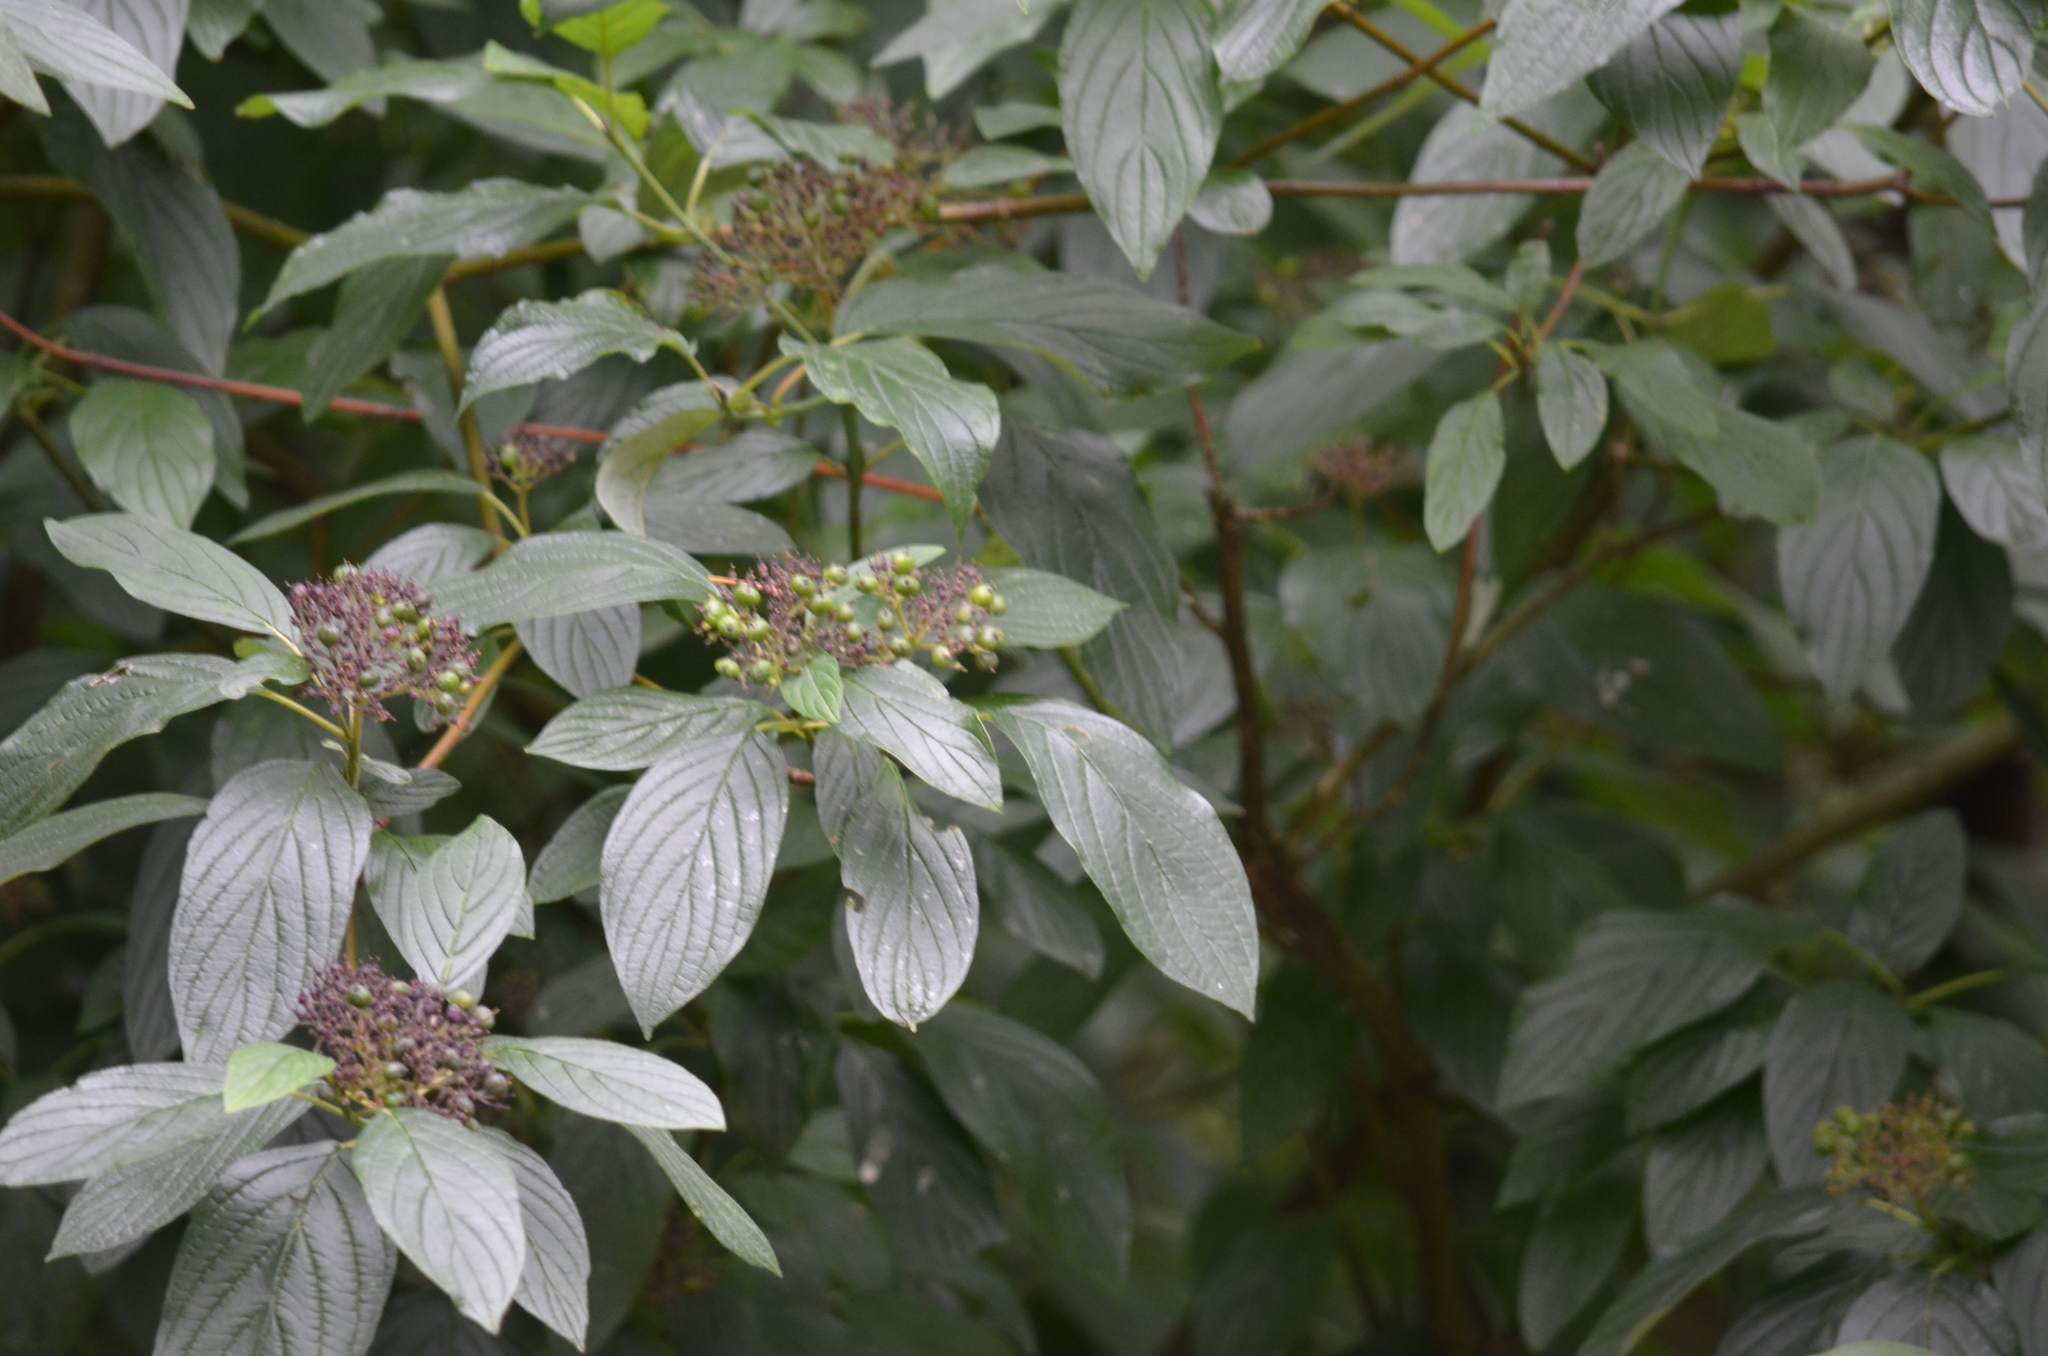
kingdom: Plantae
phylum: Tracheophyta
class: Magnoliopsida
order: Cornales
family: Cornaceae
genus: Cornus
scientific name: Cornus sericea
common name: Red-osier dogwood
